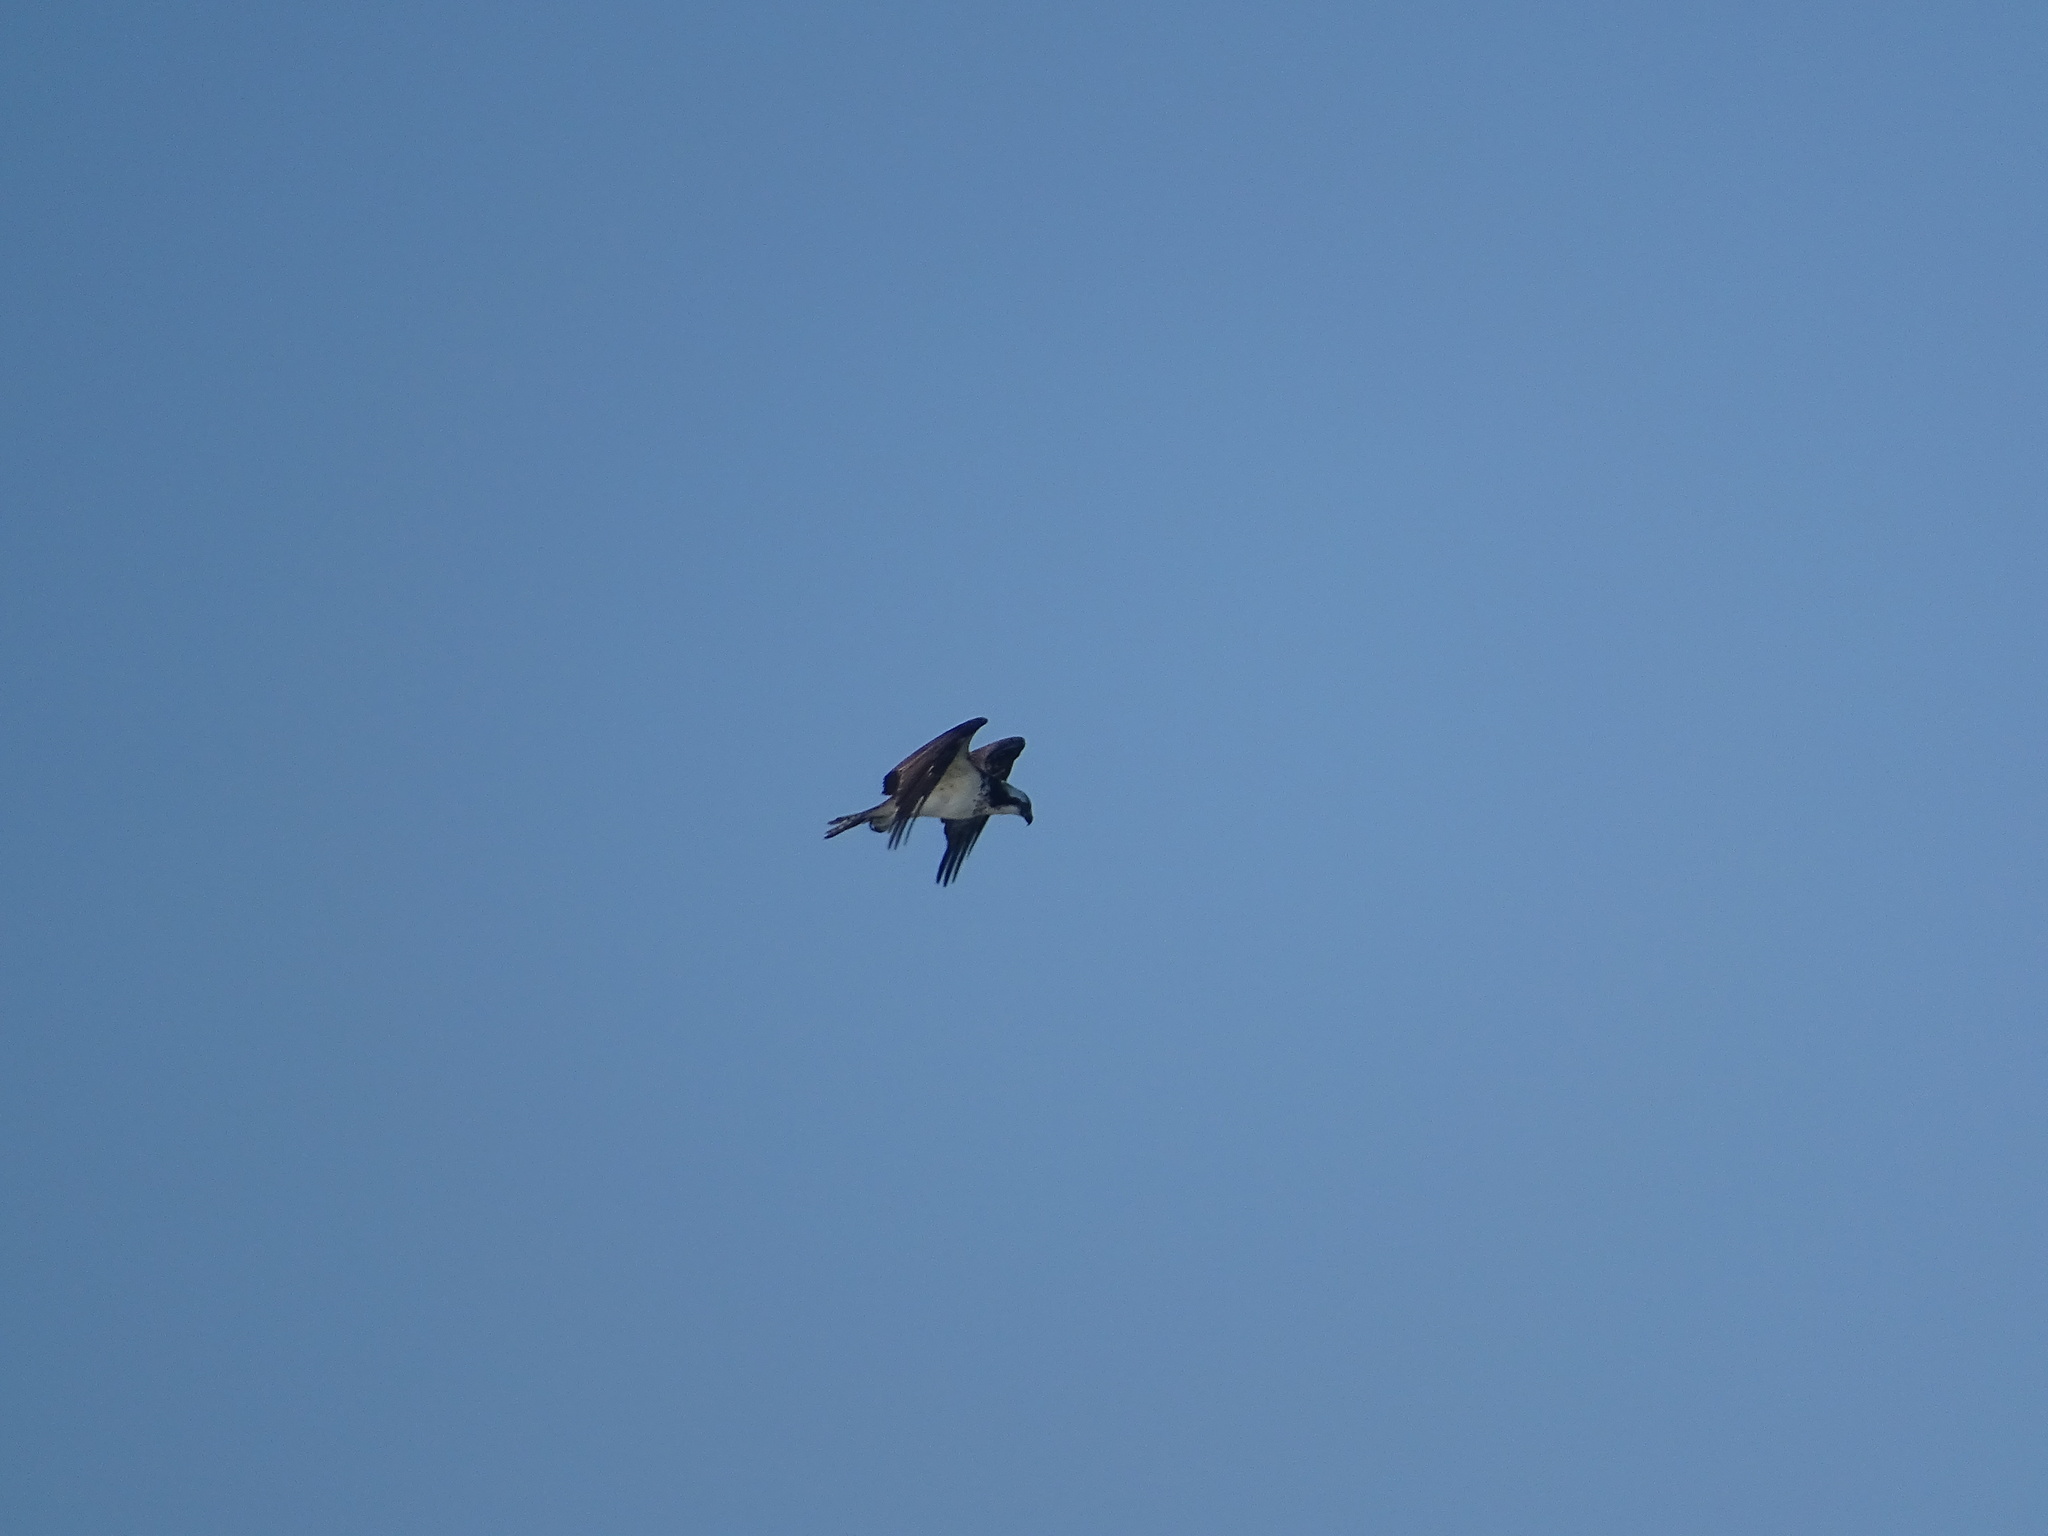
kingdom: Animalia
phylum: Chordata
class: Aves
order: Accipitriformes
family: Pandionidae
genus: Pandion
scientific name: Pandion haliaetus
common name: Osprey
